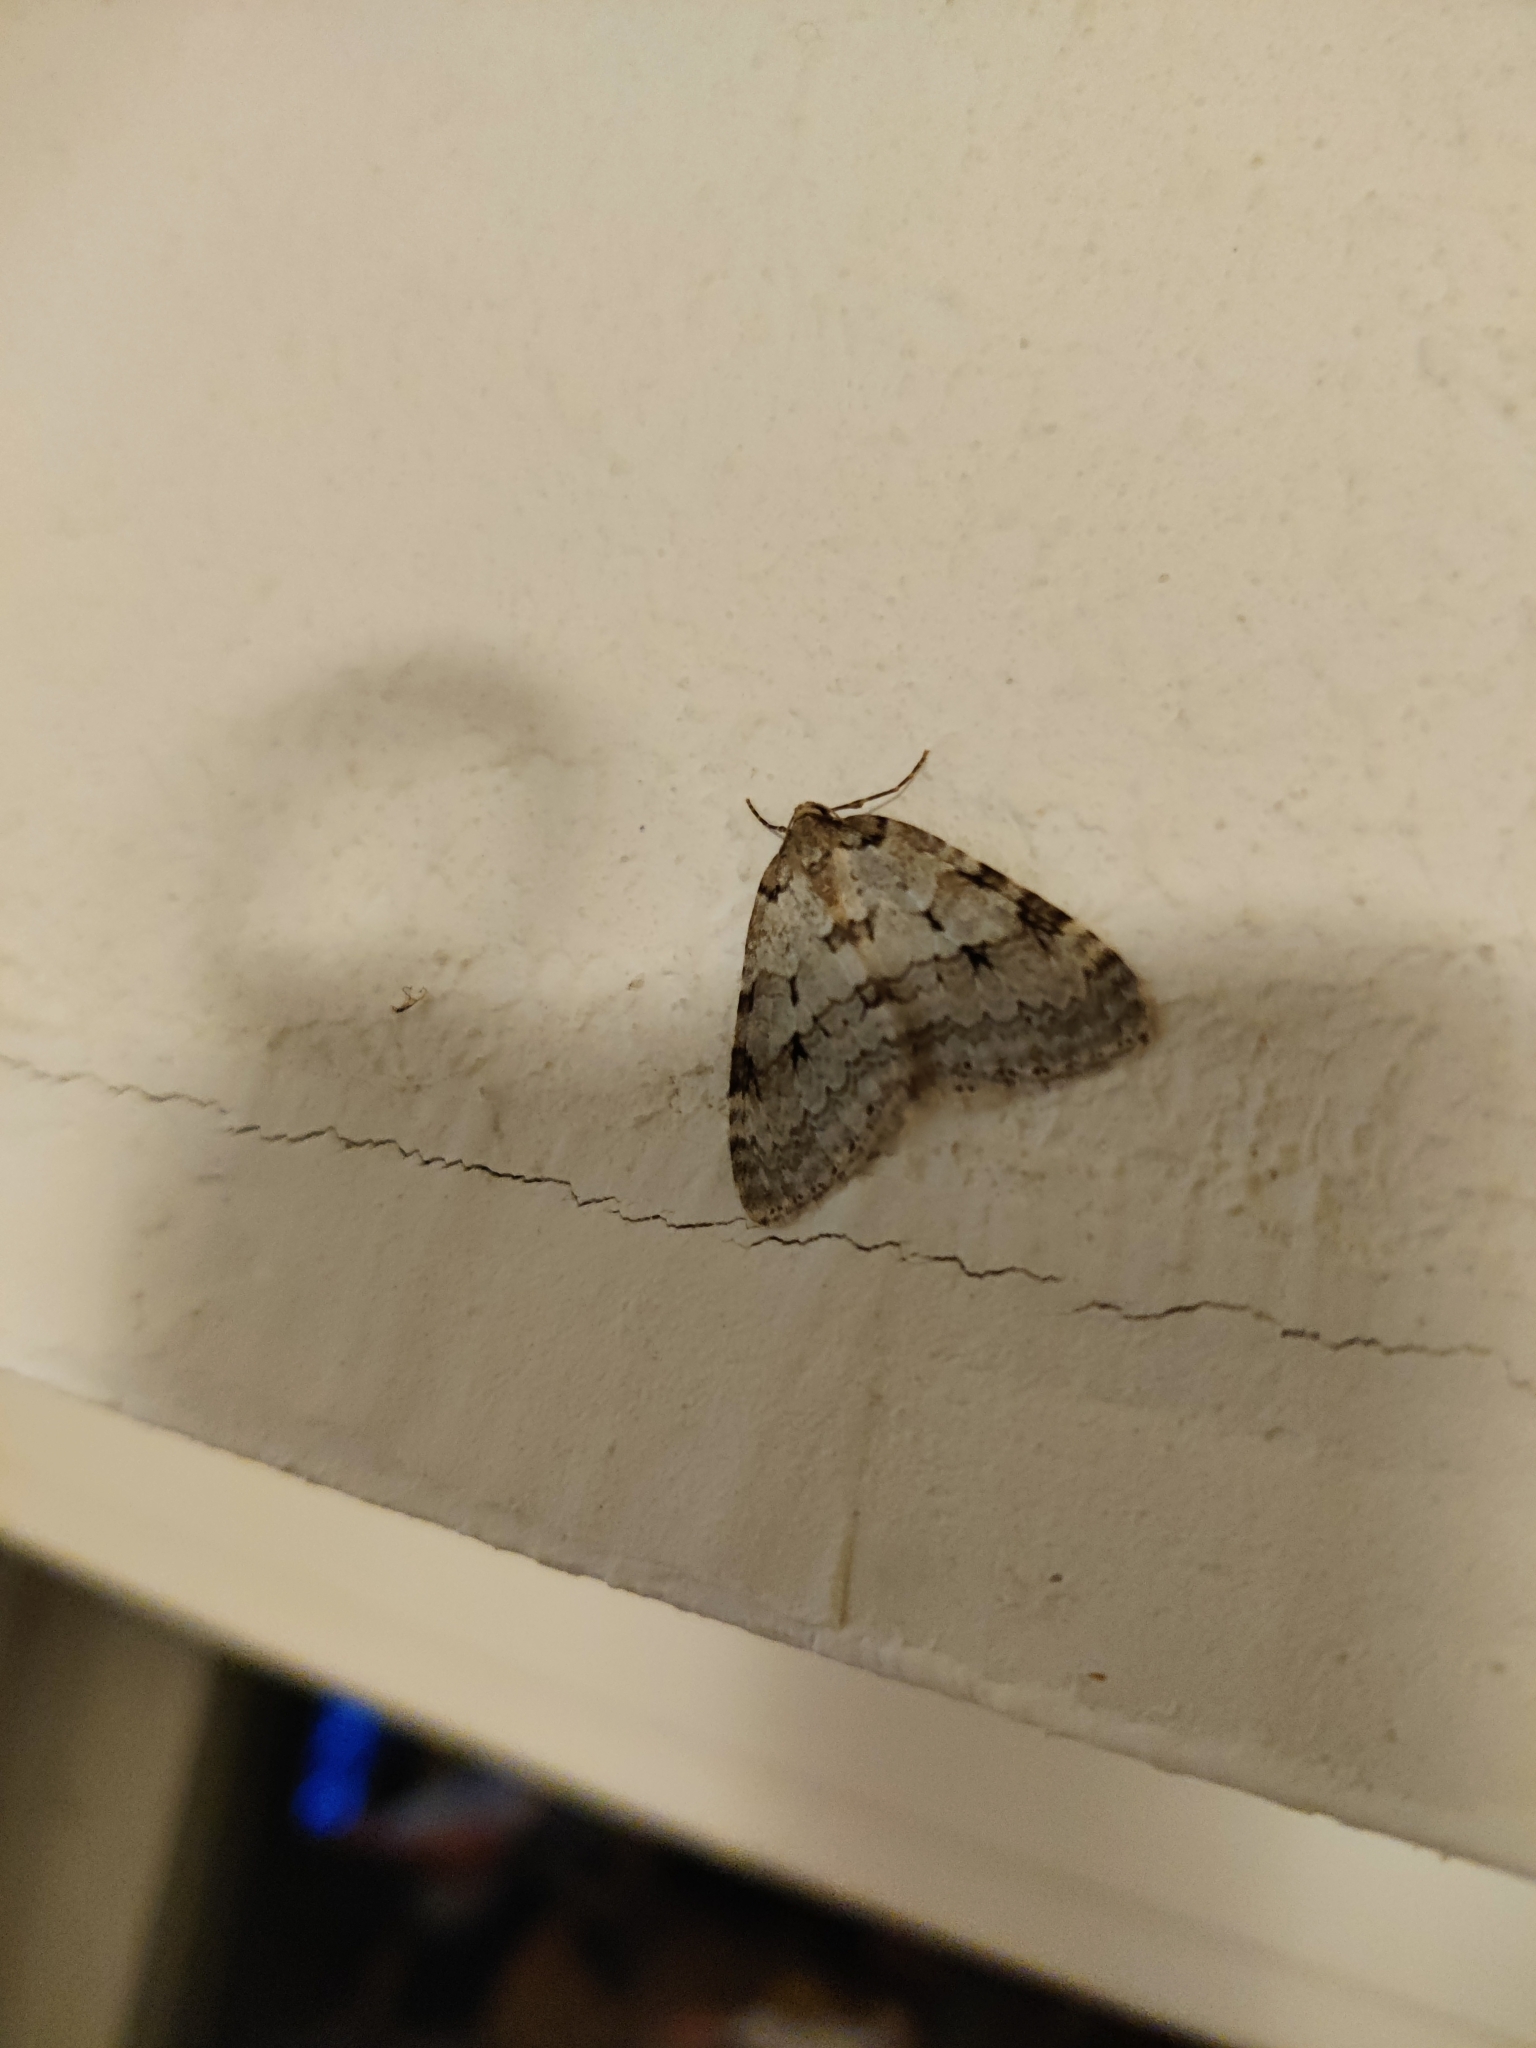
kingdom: Animalia
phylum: Arthropoda
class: Insecta
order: Lepidoptera
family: Geometridae
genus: Epirrita
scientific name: Epirrita autumnata
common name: Autumnal moth
